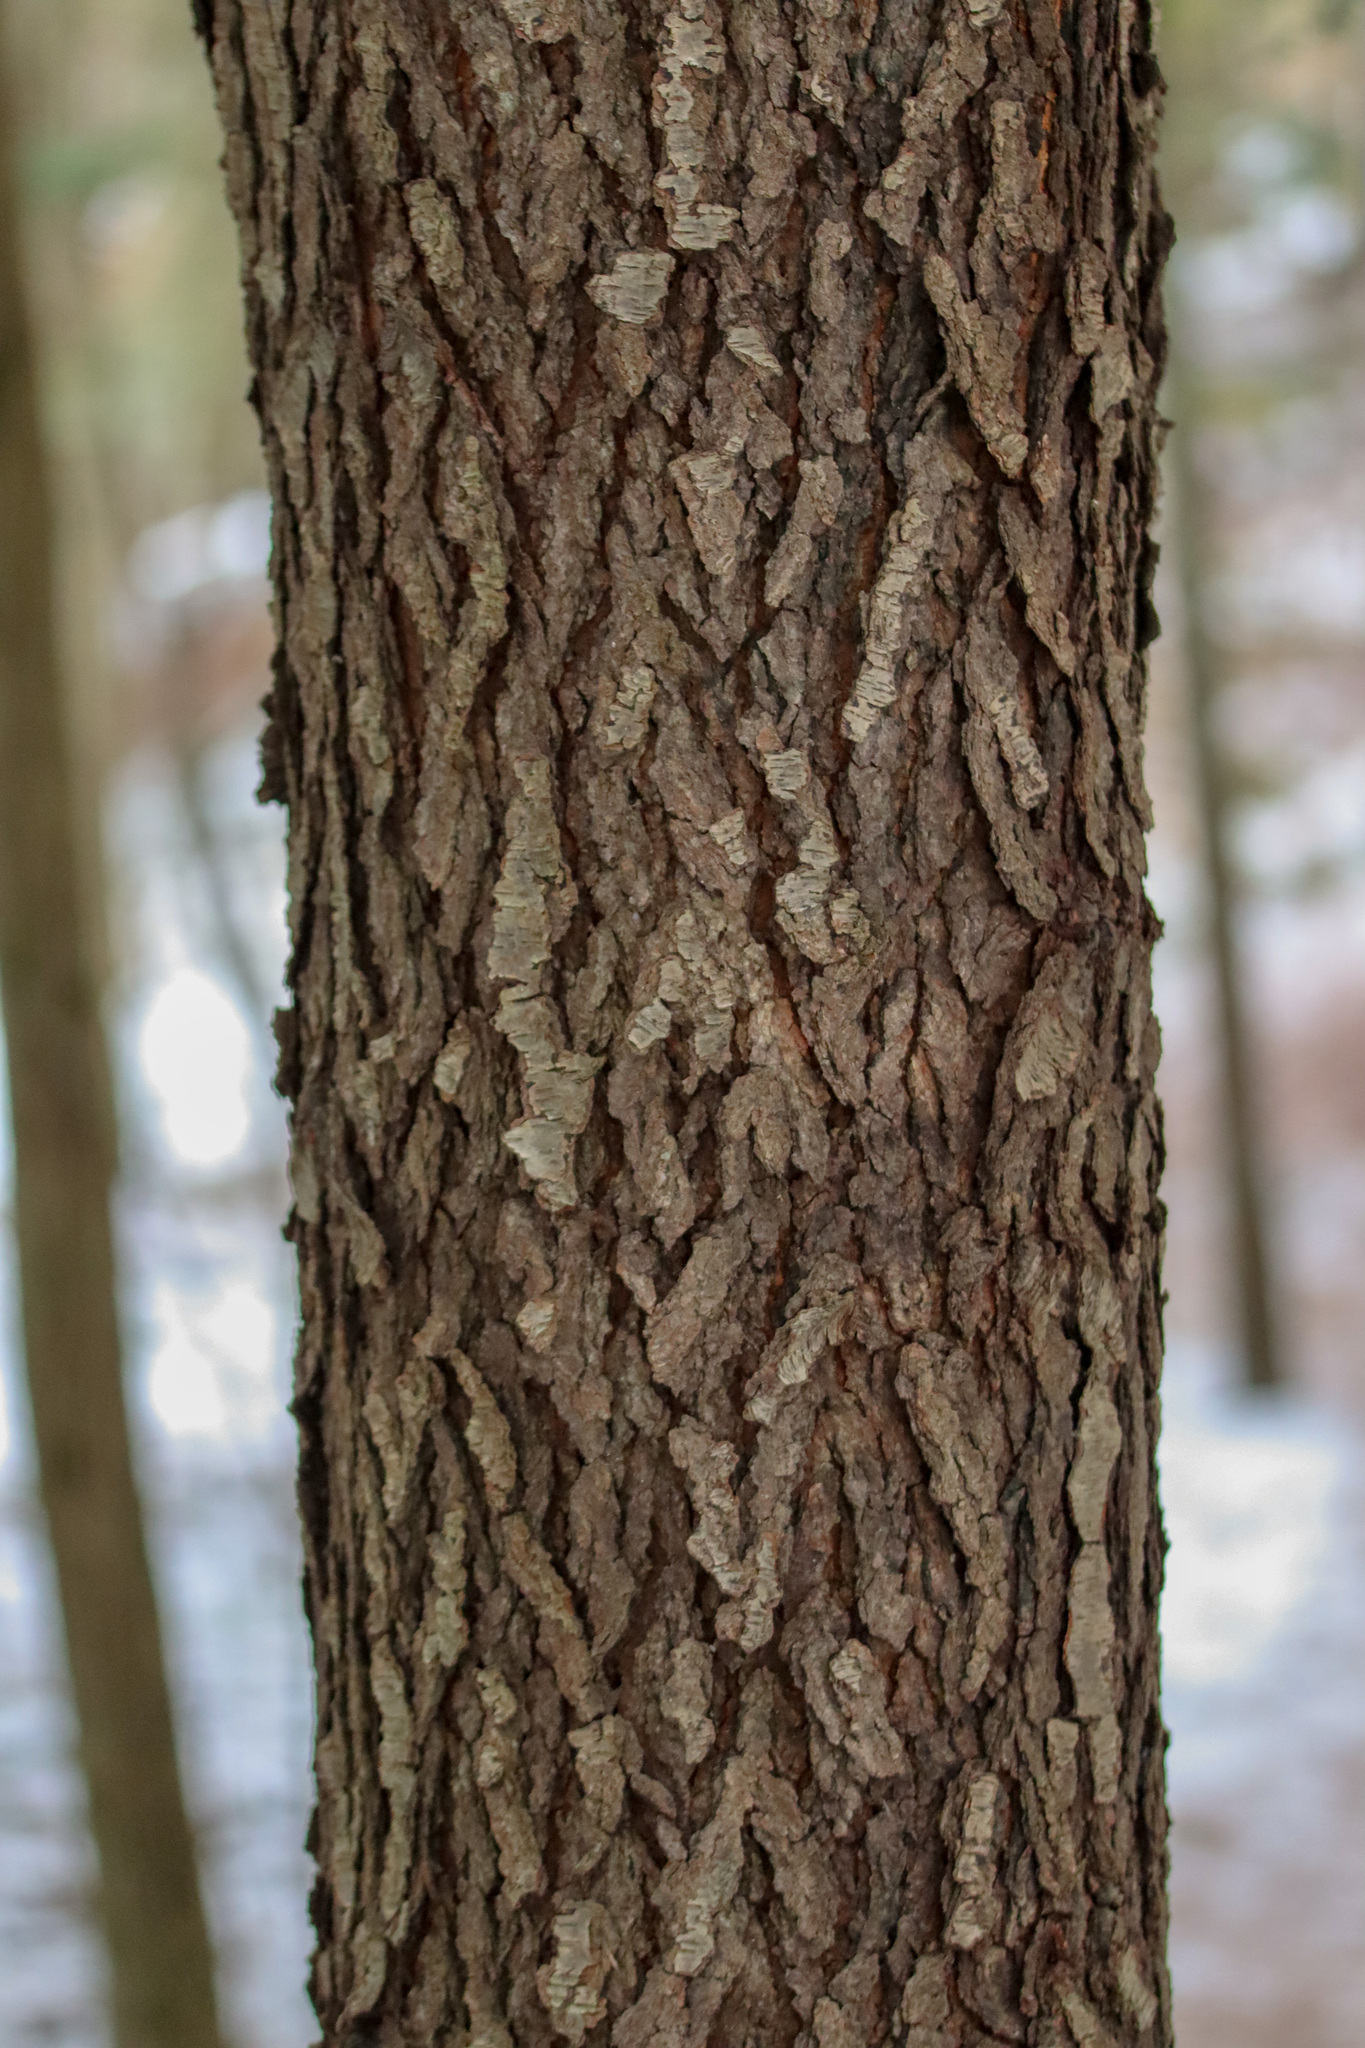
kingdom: Plantae
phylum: Tracheophyta
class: Magnoliopsida
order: Rosales
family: Rosaceae
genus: Prunus
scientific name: Prunus serotina
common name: Black cherry
